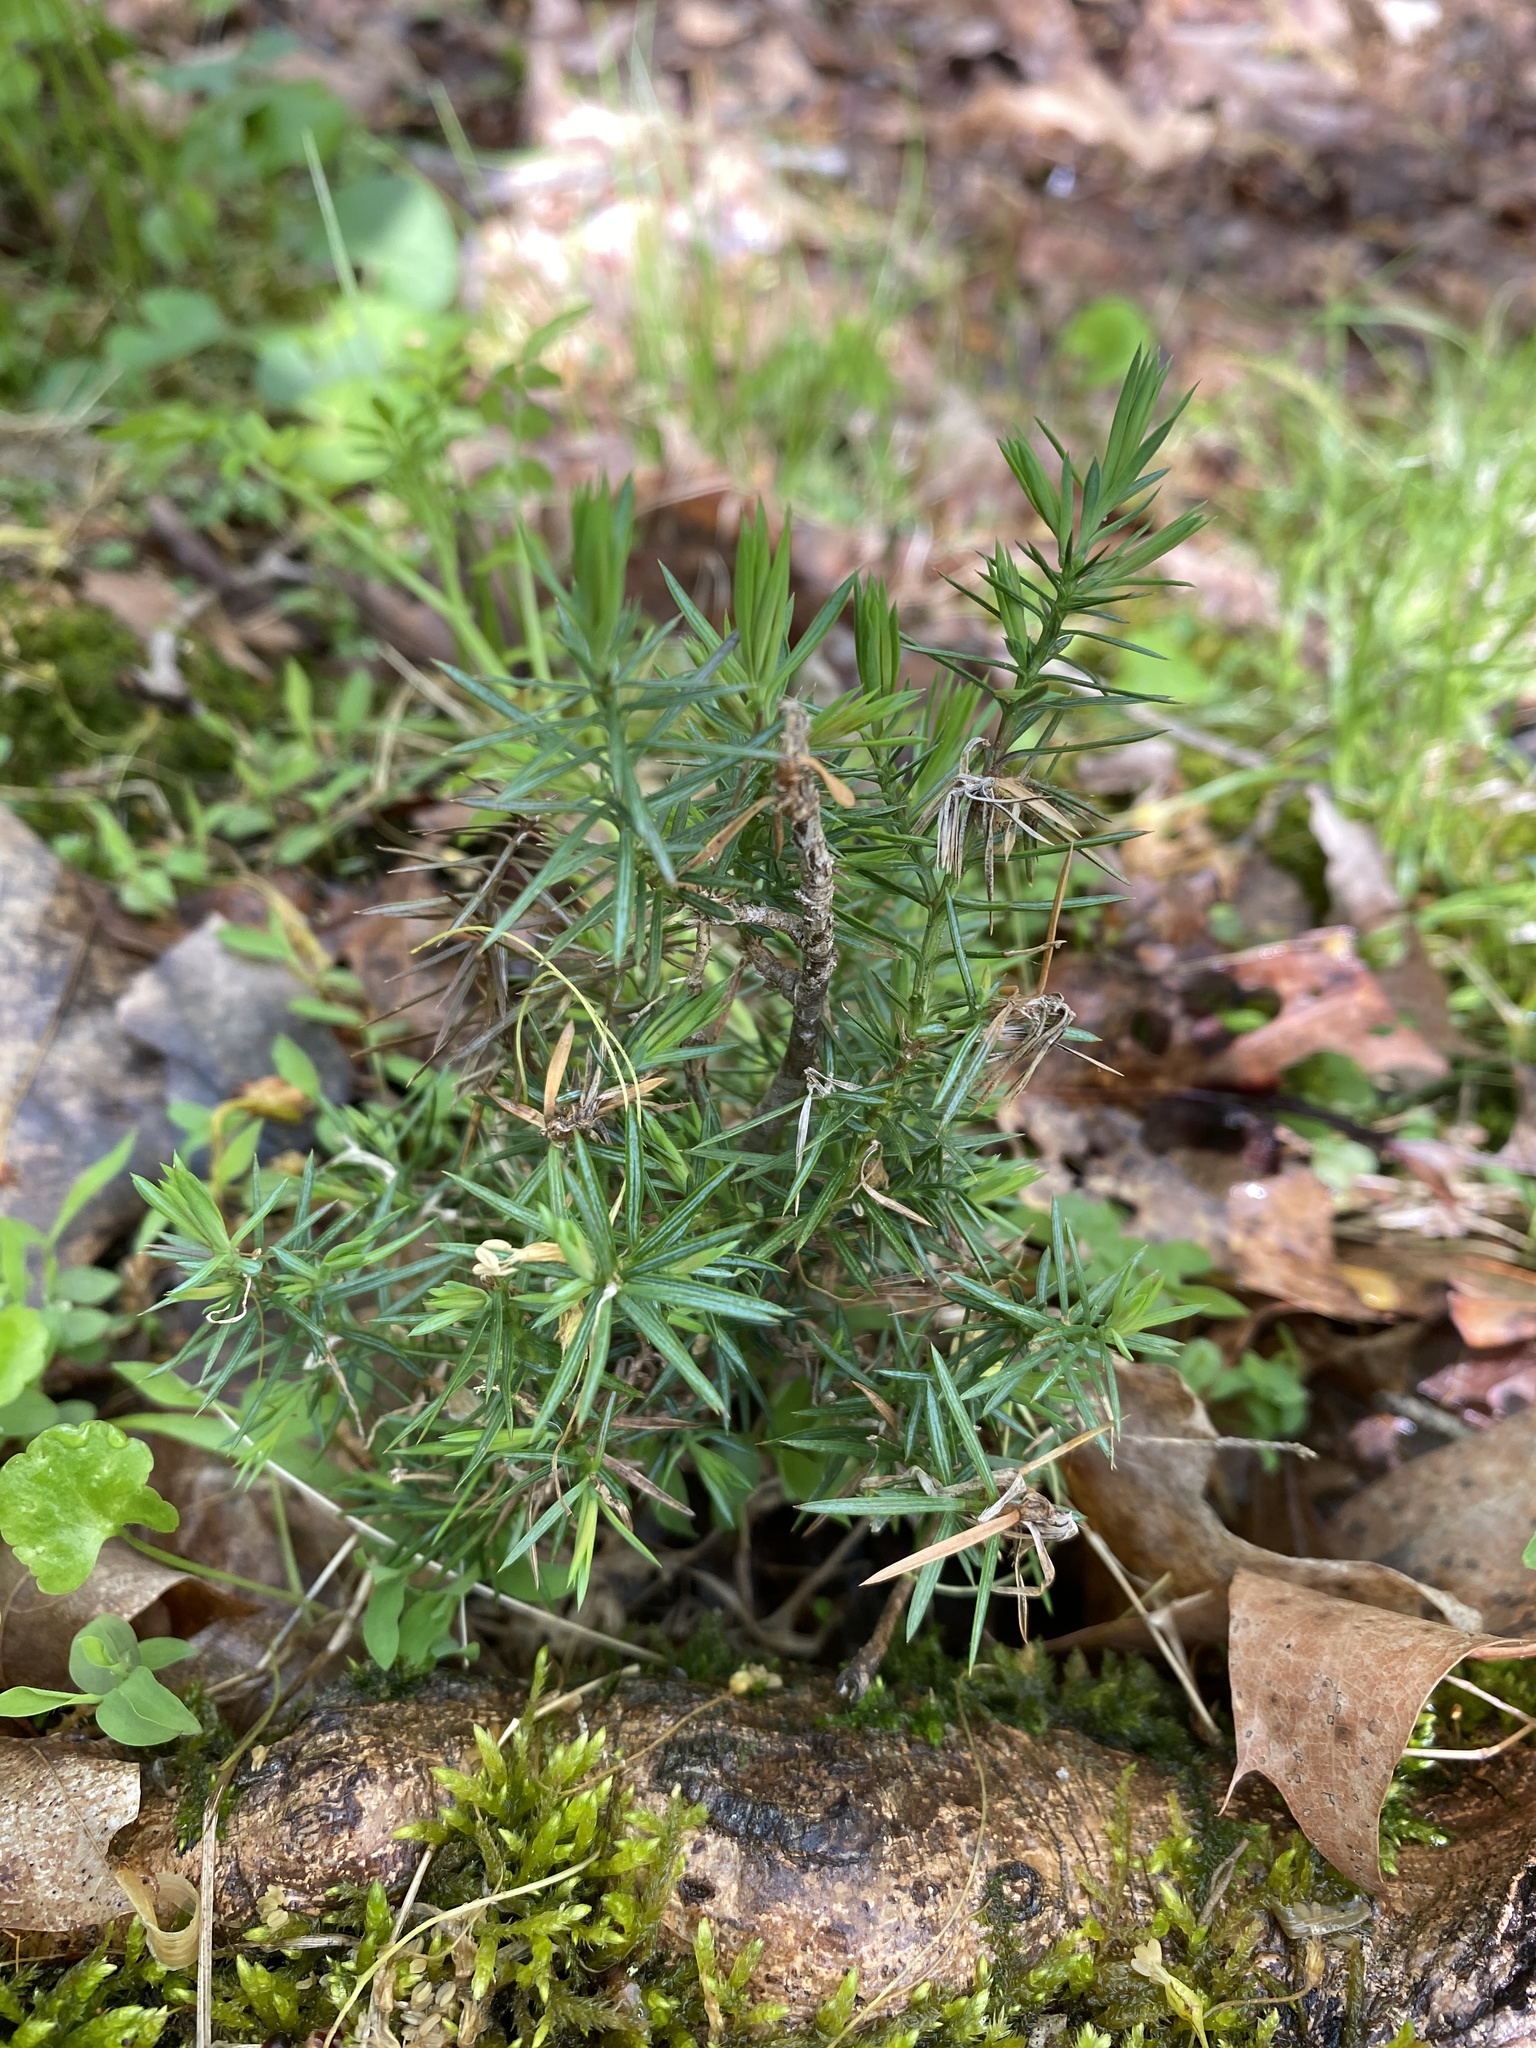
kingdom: Plantae
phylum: Tracheophyta
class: Pinopsida
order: Pinales
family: Cupressaceae
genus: Juniperus
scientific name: Juniperus communis
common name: Common juniper
